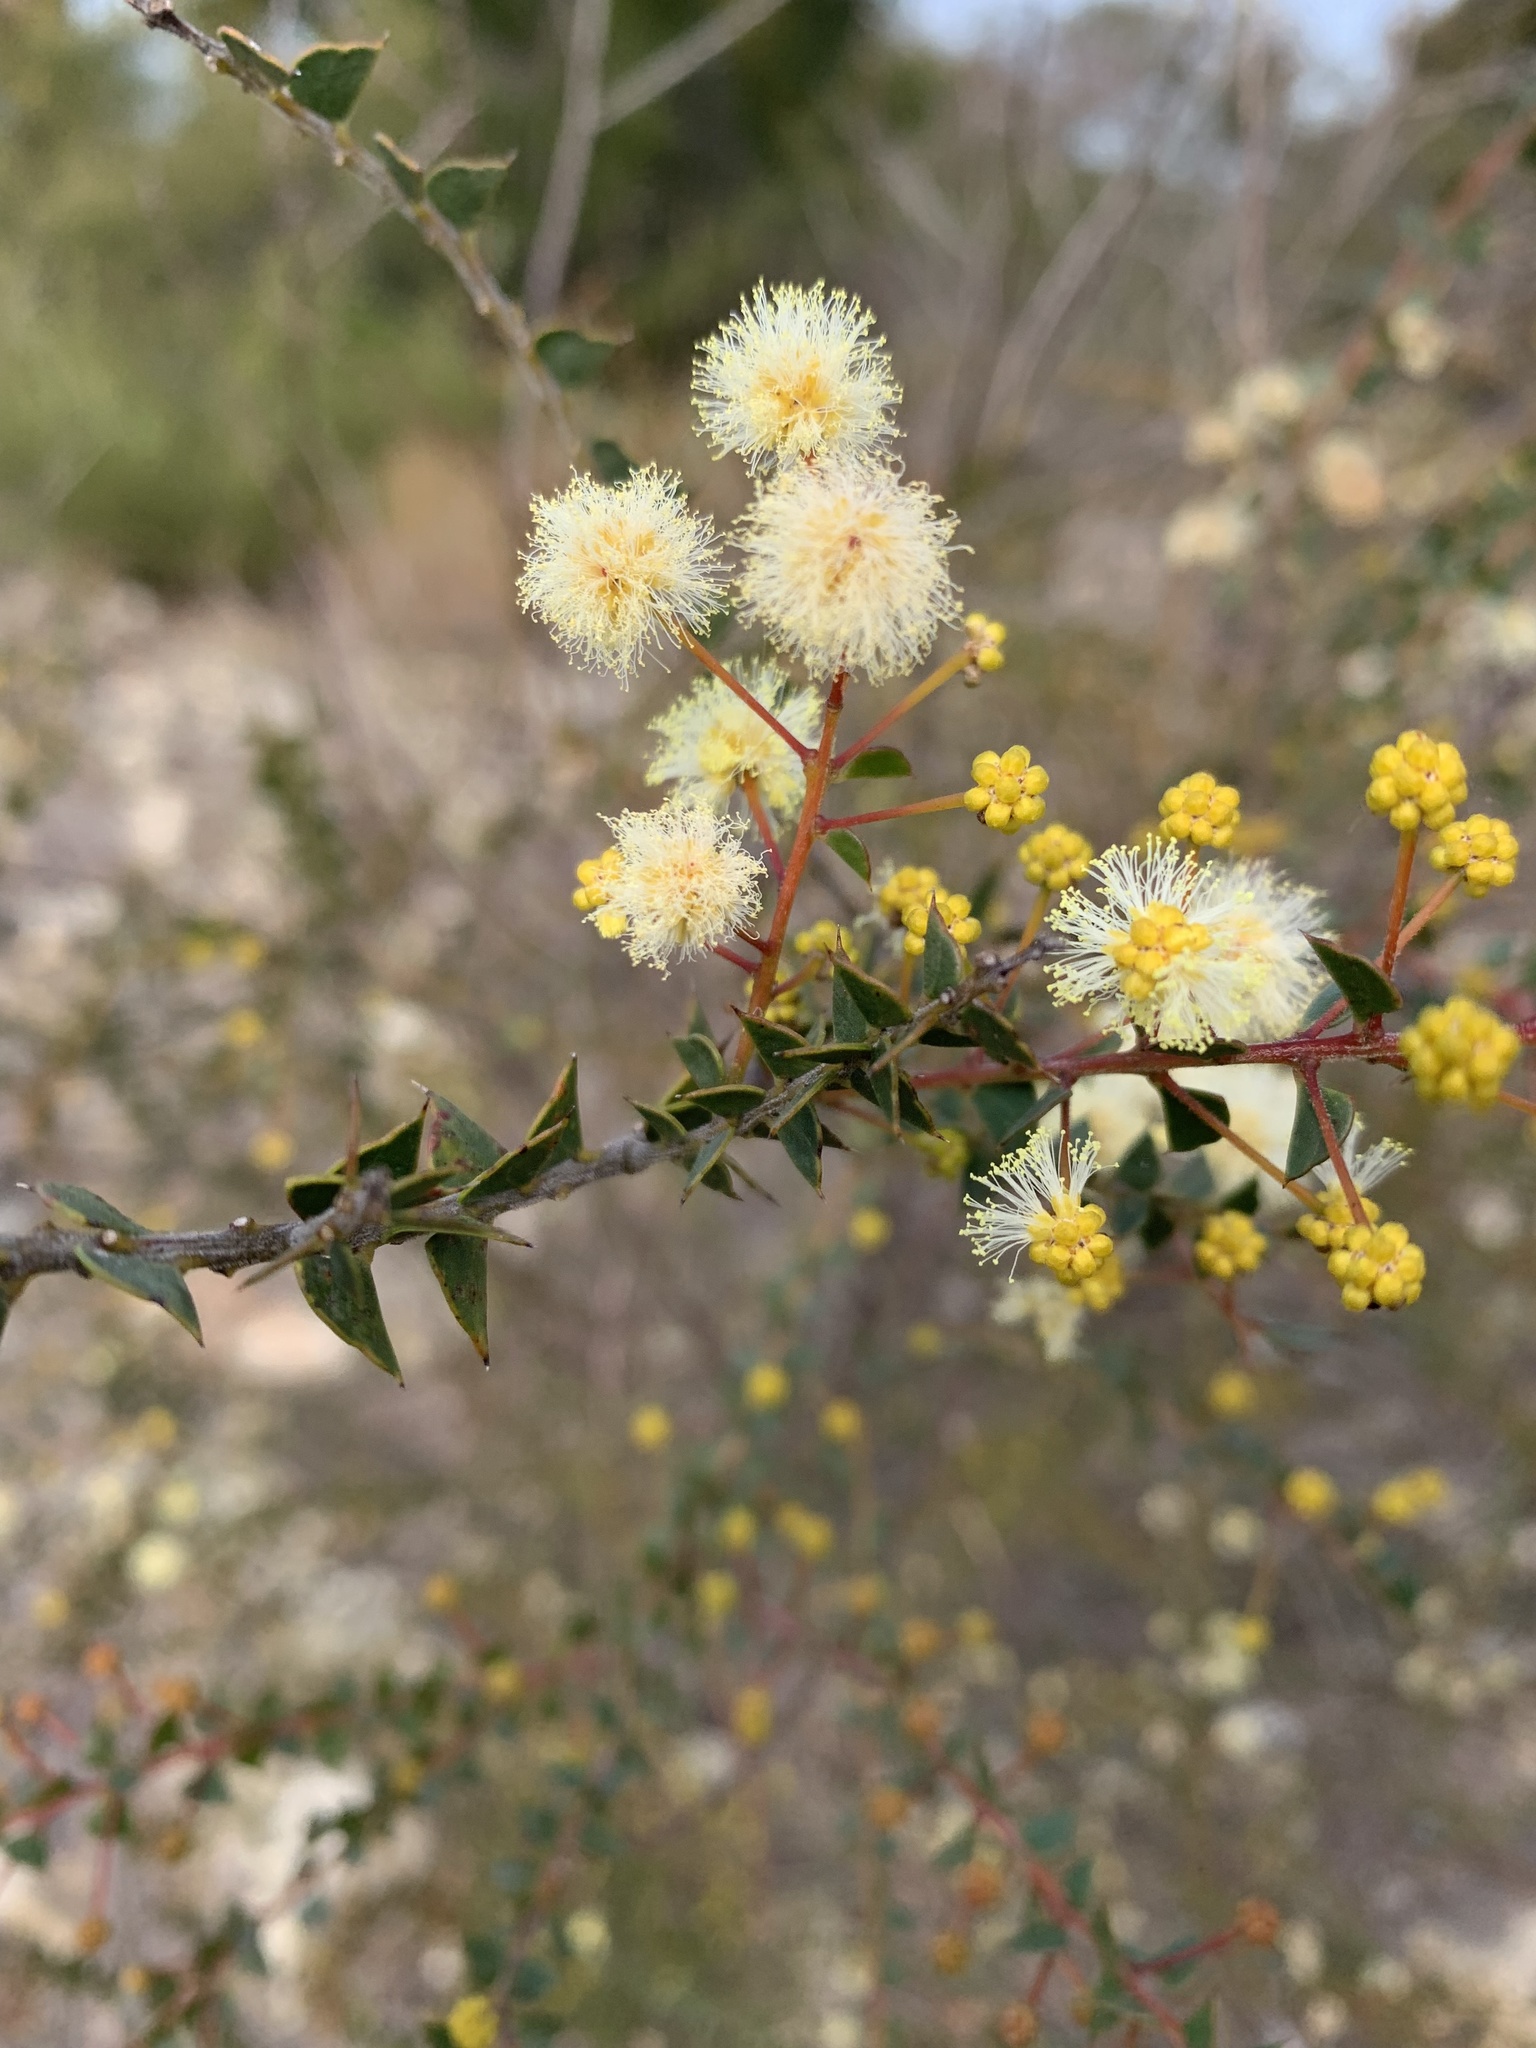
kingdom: Plantae
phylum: Tracheophyta
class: Magnoliopsida
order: Fabales
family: Fabaceae
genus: Acacia
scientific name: Acacia hubbardiana
